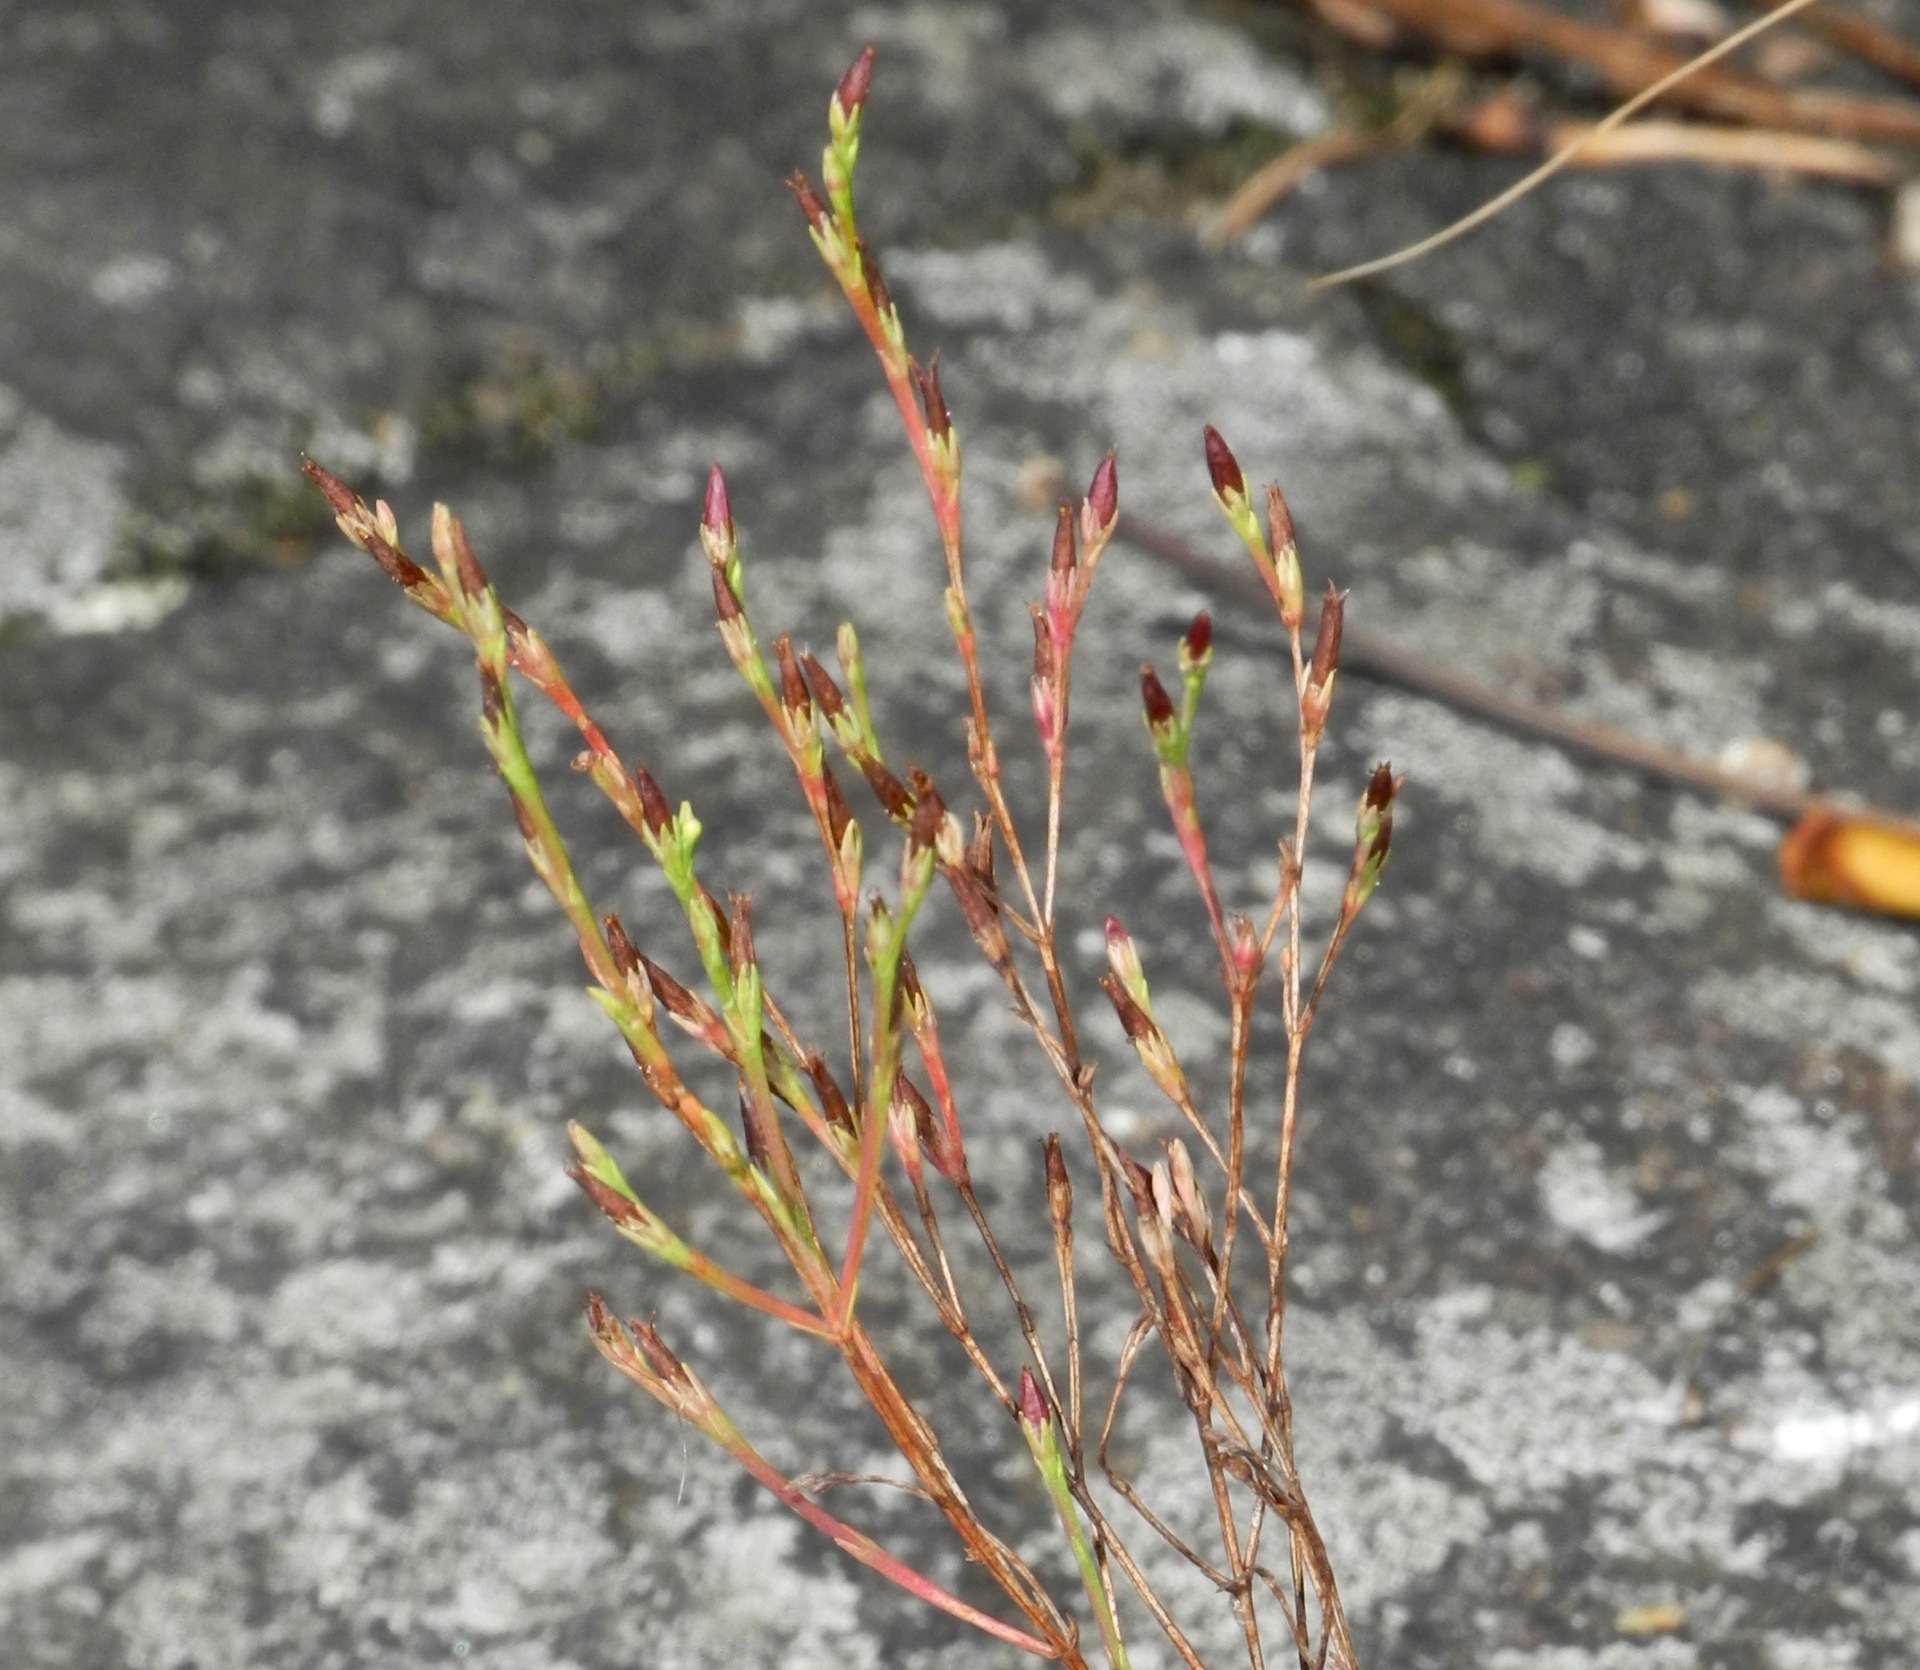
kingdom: Plantae
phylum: Tracheophyta
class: Magnoliopsida
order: Malpighiales
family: Hypericaceae
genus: Hypericum
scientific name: Hypericum gentianoides
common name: Gentian-leaved st. john's-wort
